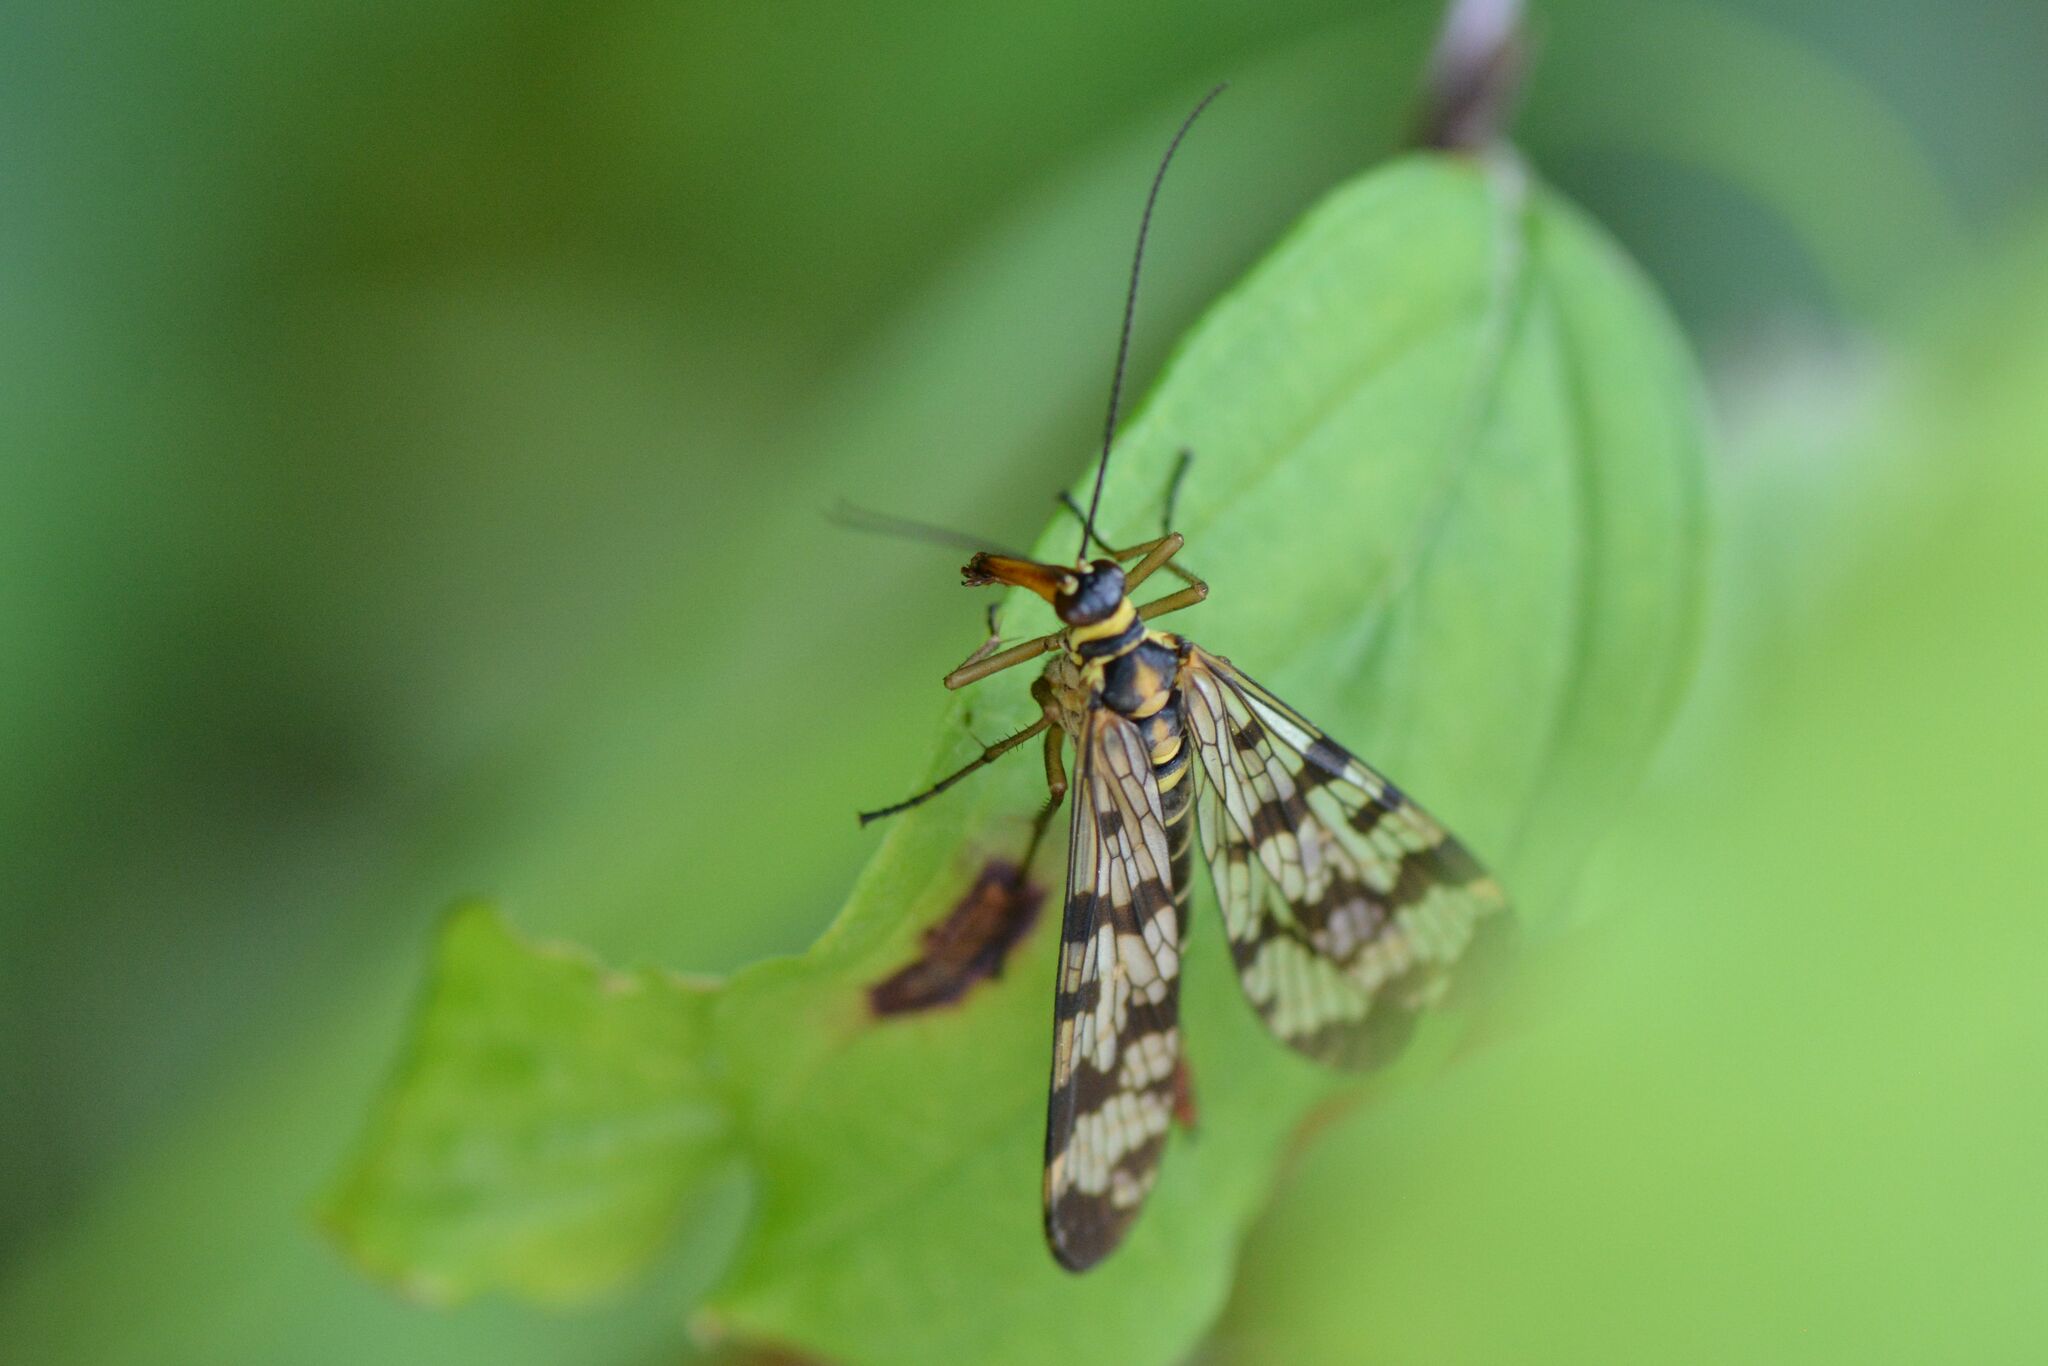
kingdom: Animalia
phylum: Arthropoda
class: Insecta
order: Mecoptera
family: Panorpidae
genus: Panorpa
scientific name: Panorpa communis
